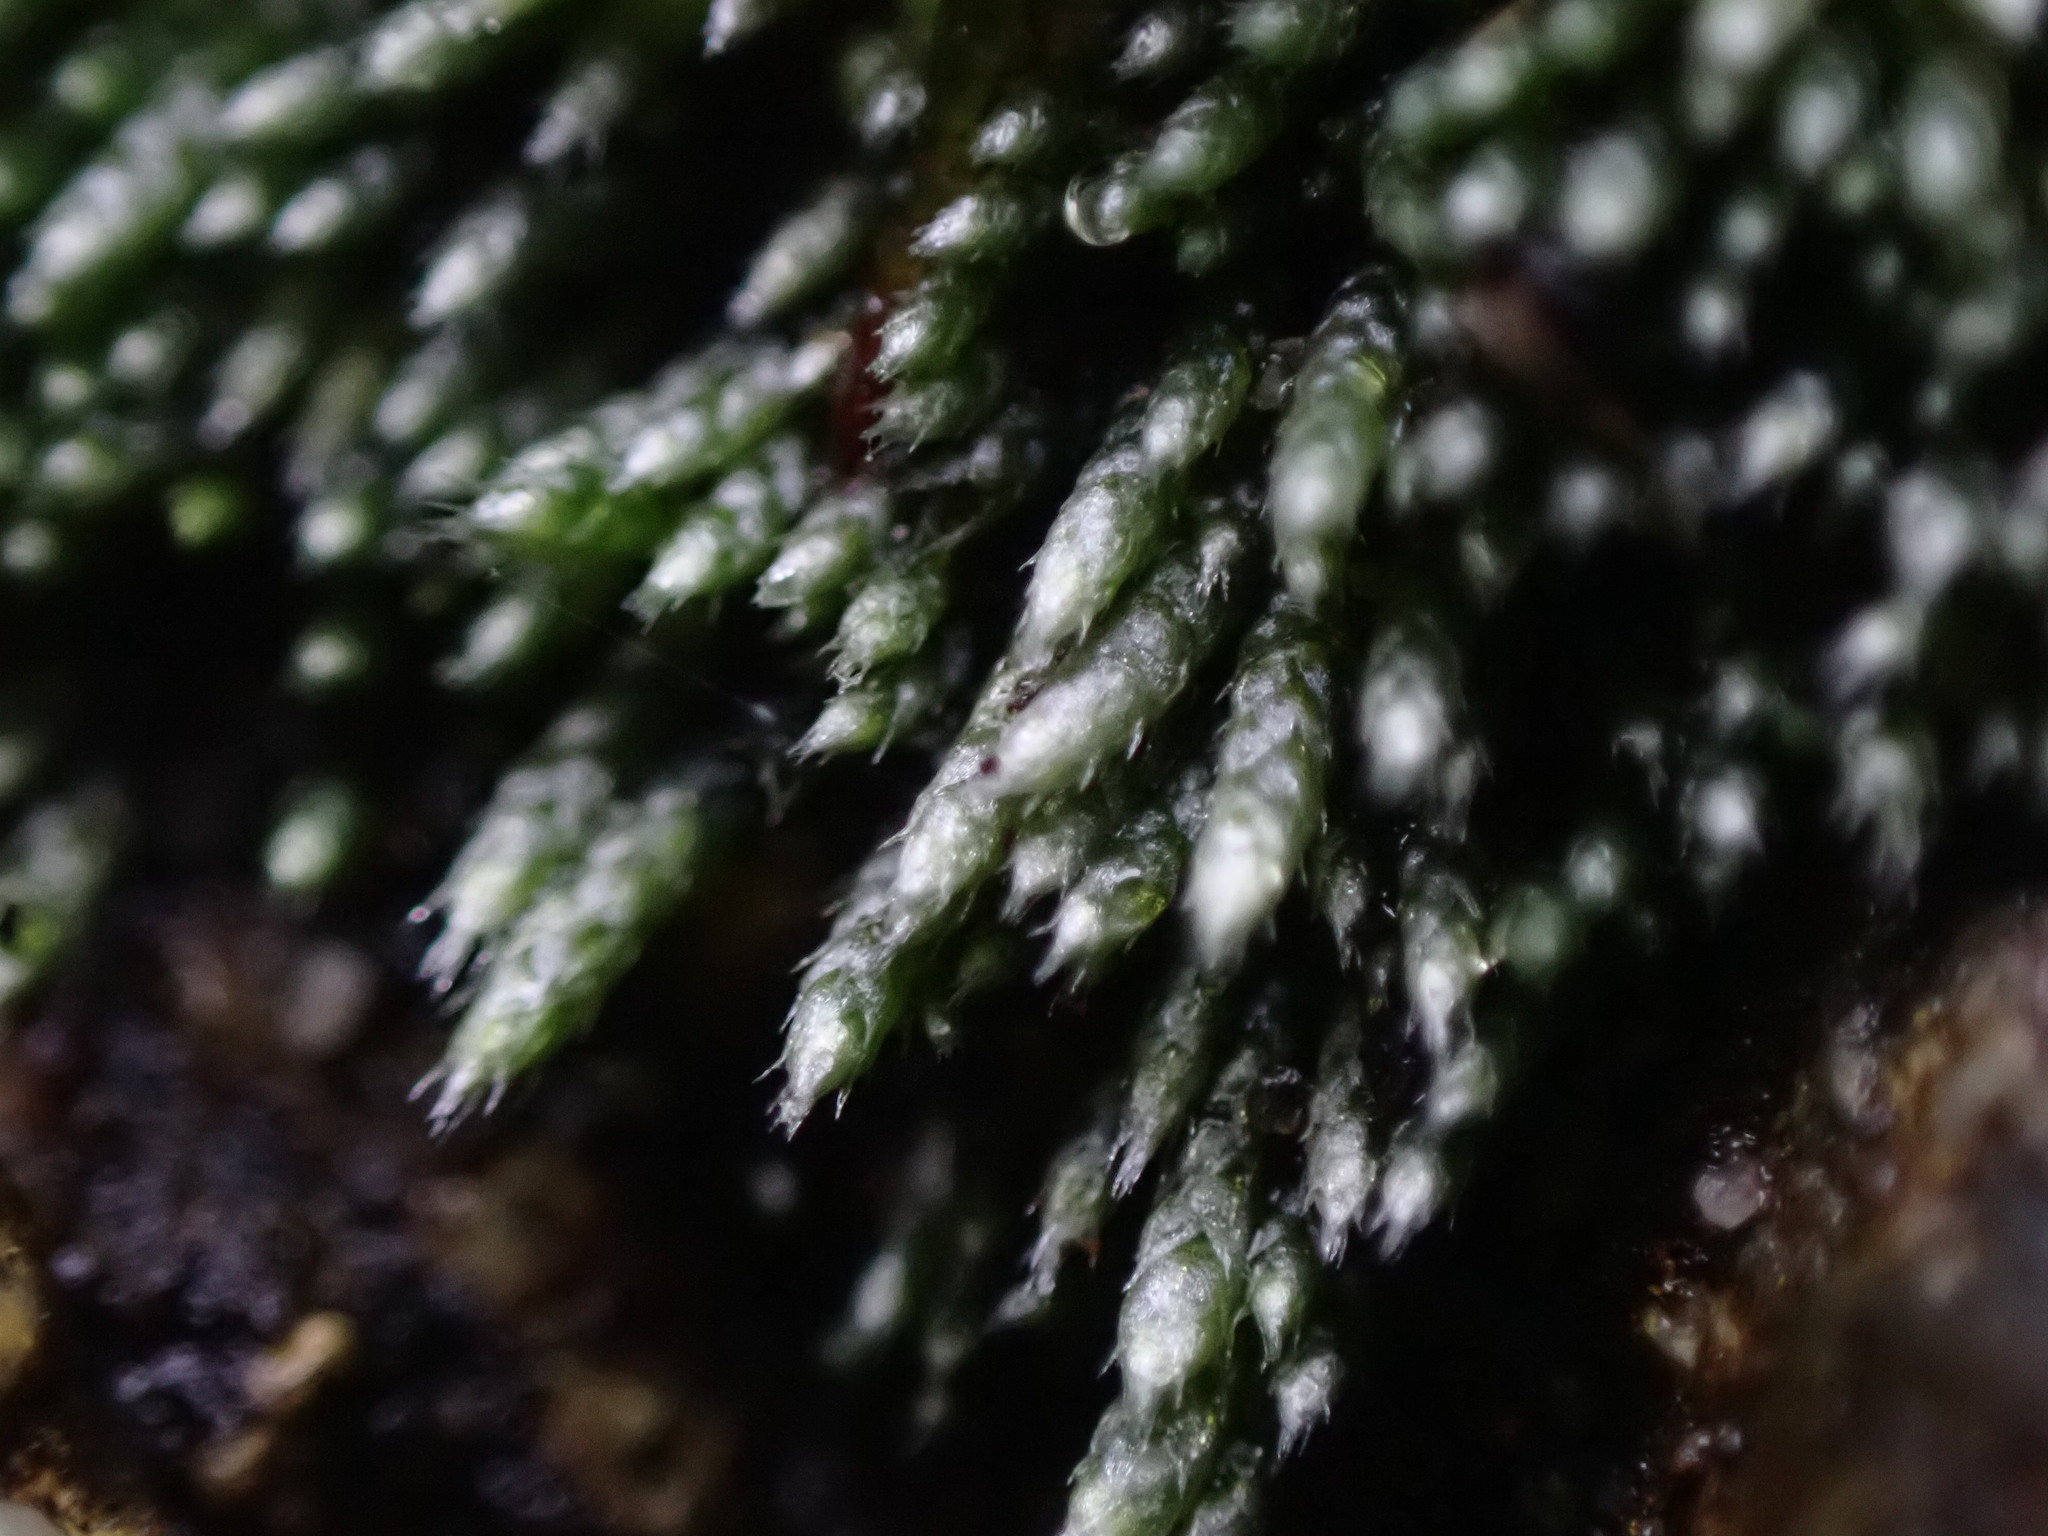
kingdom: Plantae
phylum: Bryophyta
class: Bryopsida
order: Bryales
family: Bryaceae
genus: Bryum
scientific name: Bryum argenteum
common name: Silver-moss
